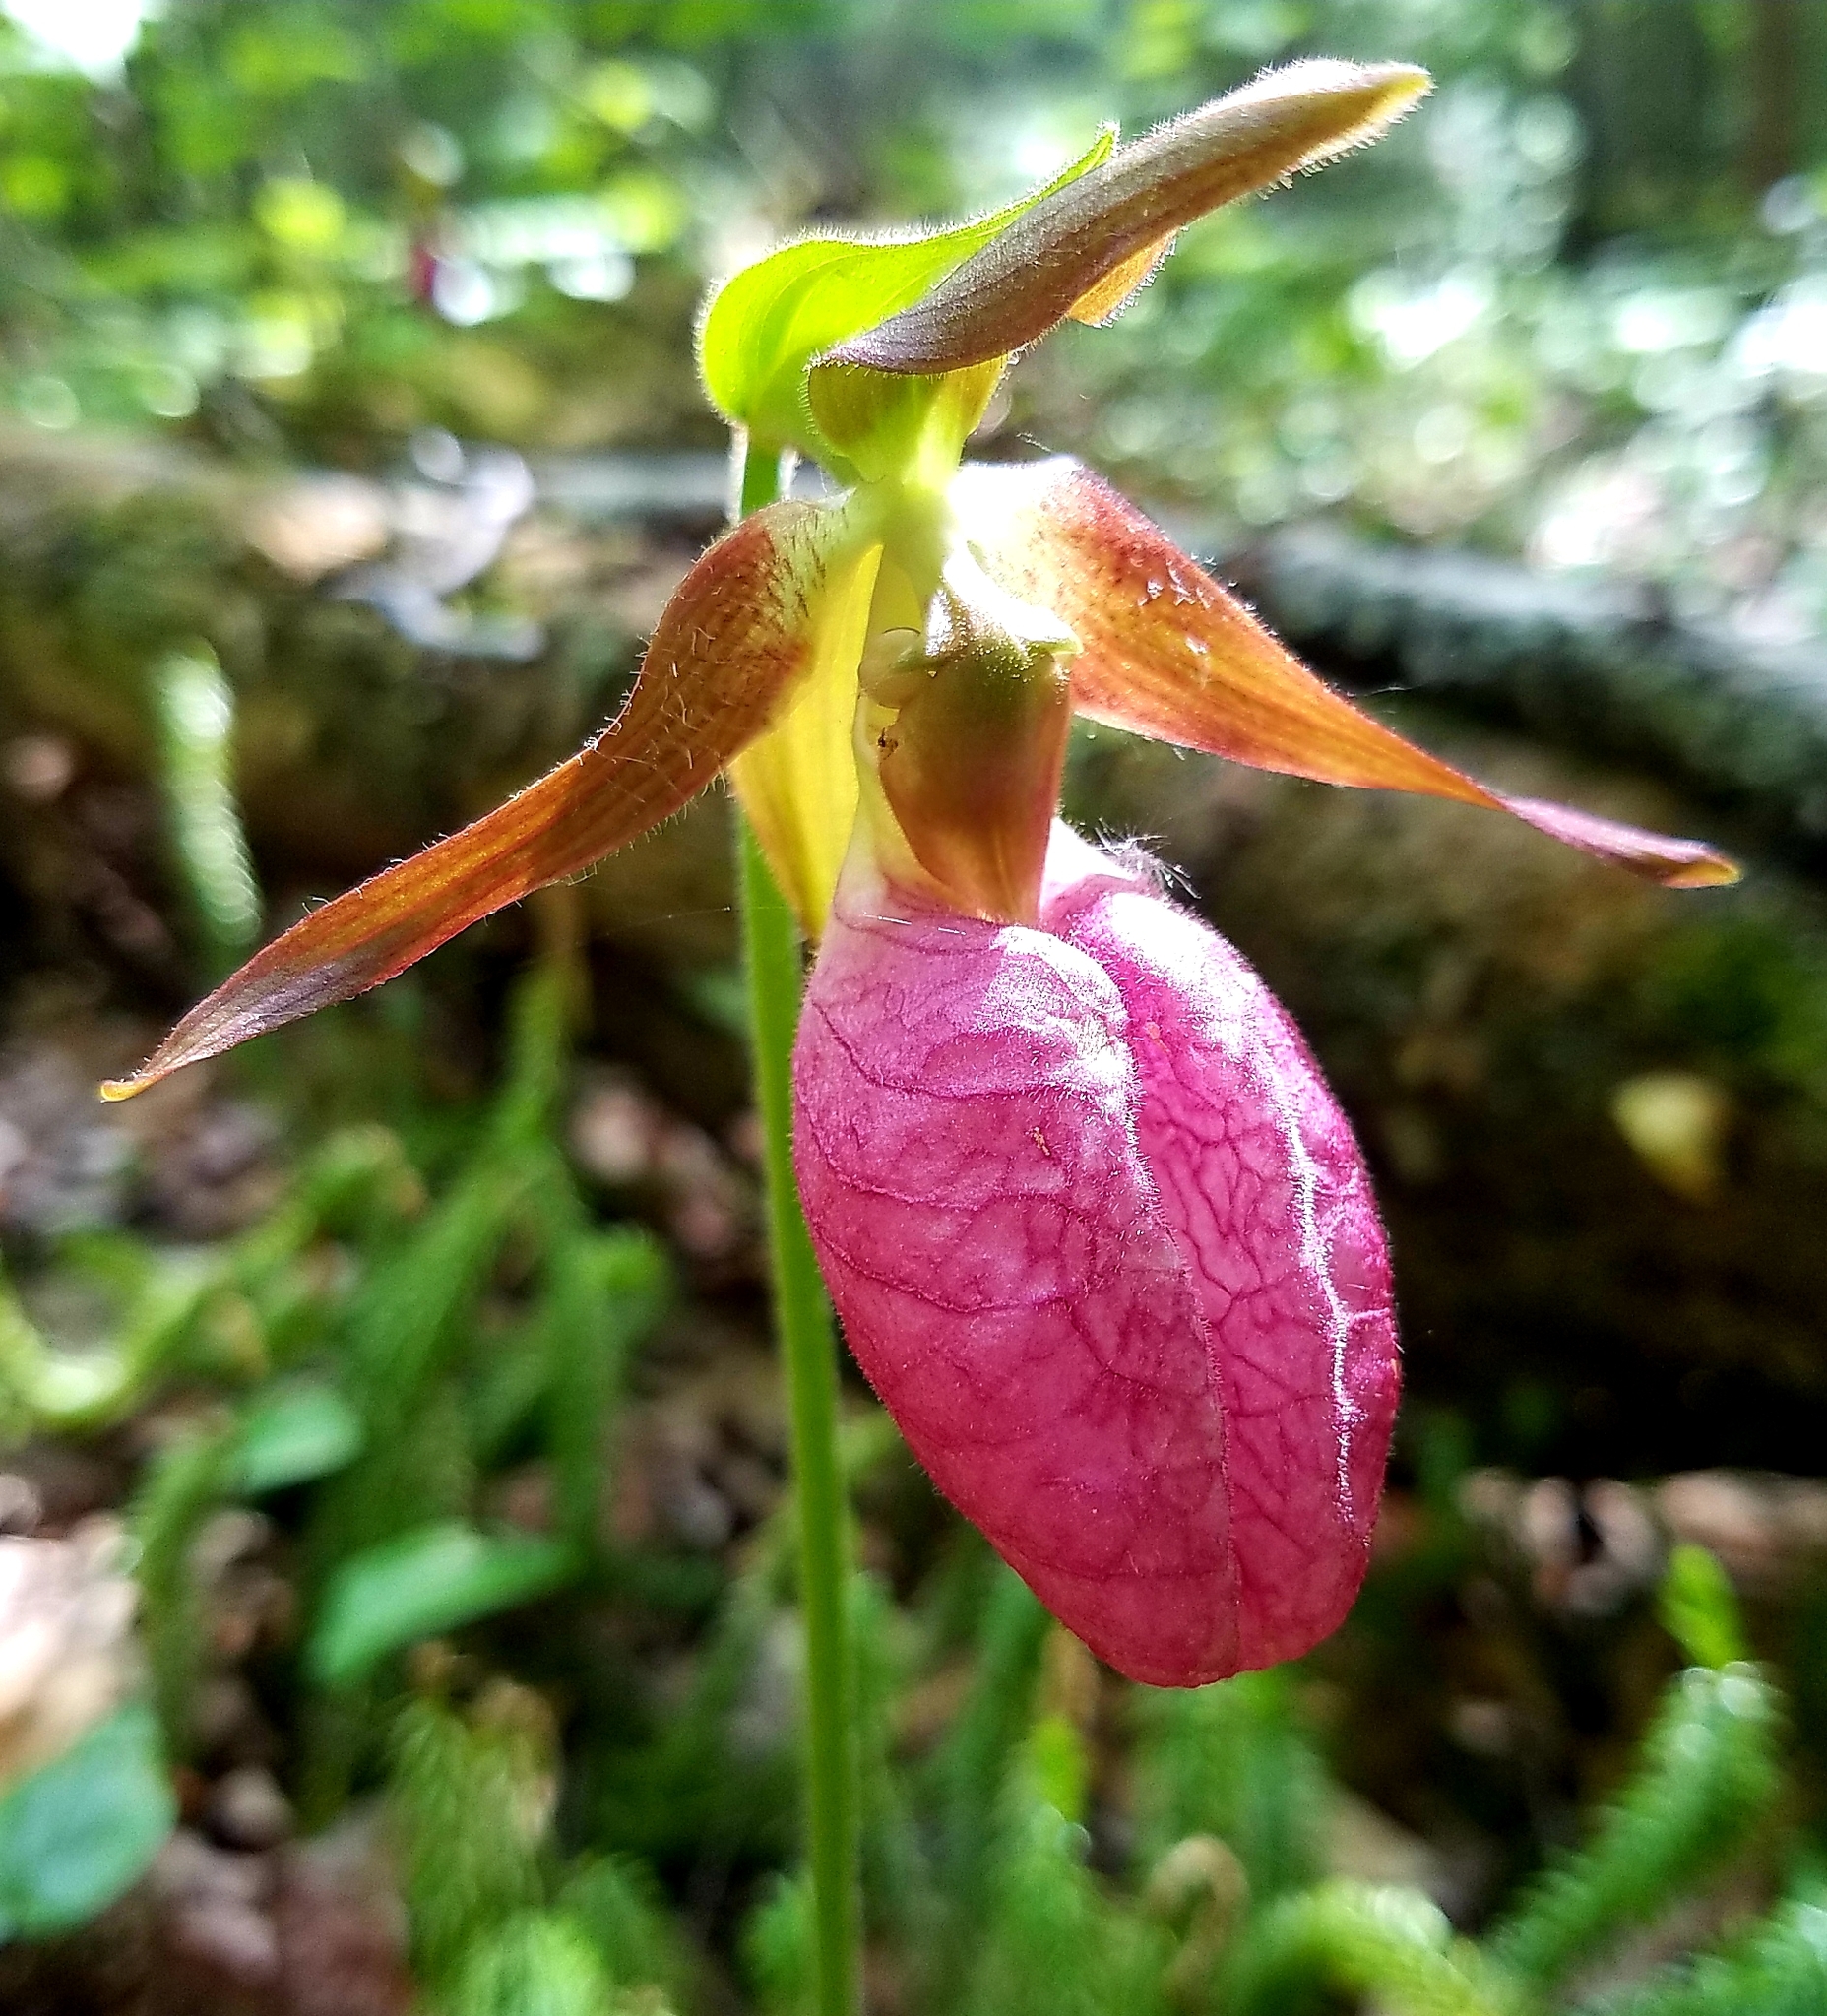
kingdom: Plantae
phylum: Tracheophyta
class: Liliopsida
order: Asparagales
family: Orchidaceae
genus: Cypripedium
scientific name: Cypripedium acaule
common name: Pink lady's-slipper
